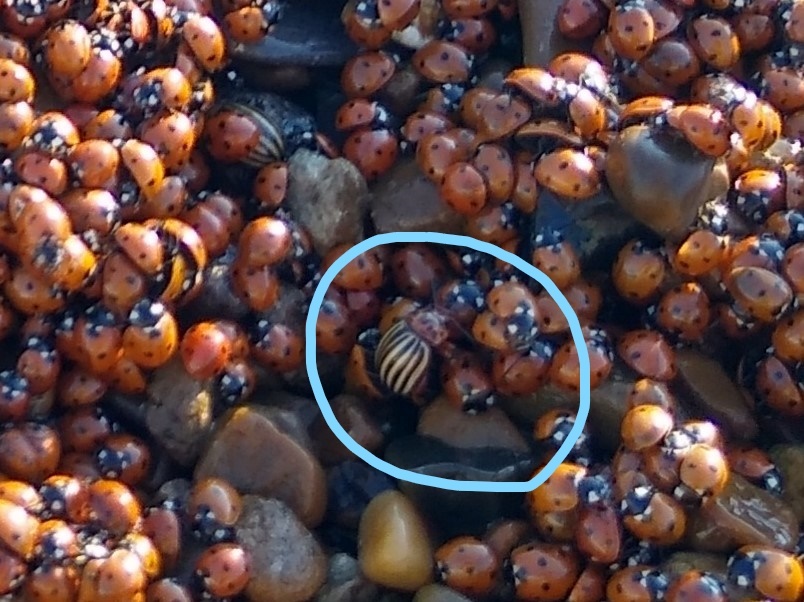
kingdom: Animalia
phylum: Arthropoda
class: Insecta
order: Coleoptera
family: Chrysomelidae
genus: Leptinotarsa
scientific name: Leptinotarsa decemlineata
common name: Colorado potato beetle
